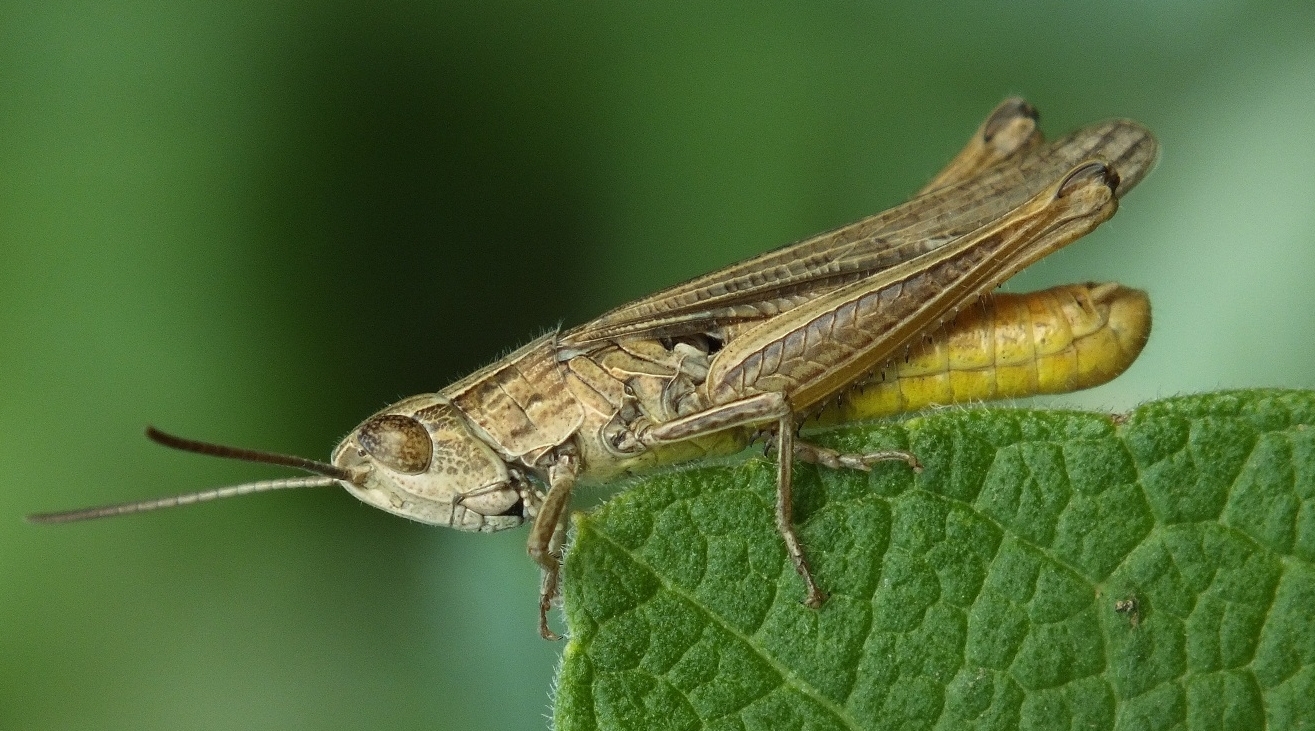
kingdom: Animalia
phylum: Arthropoda
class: Insecta
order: Orthoptera
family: Acrididae
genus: Chorthippus
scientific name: Chorthippus dichrous
